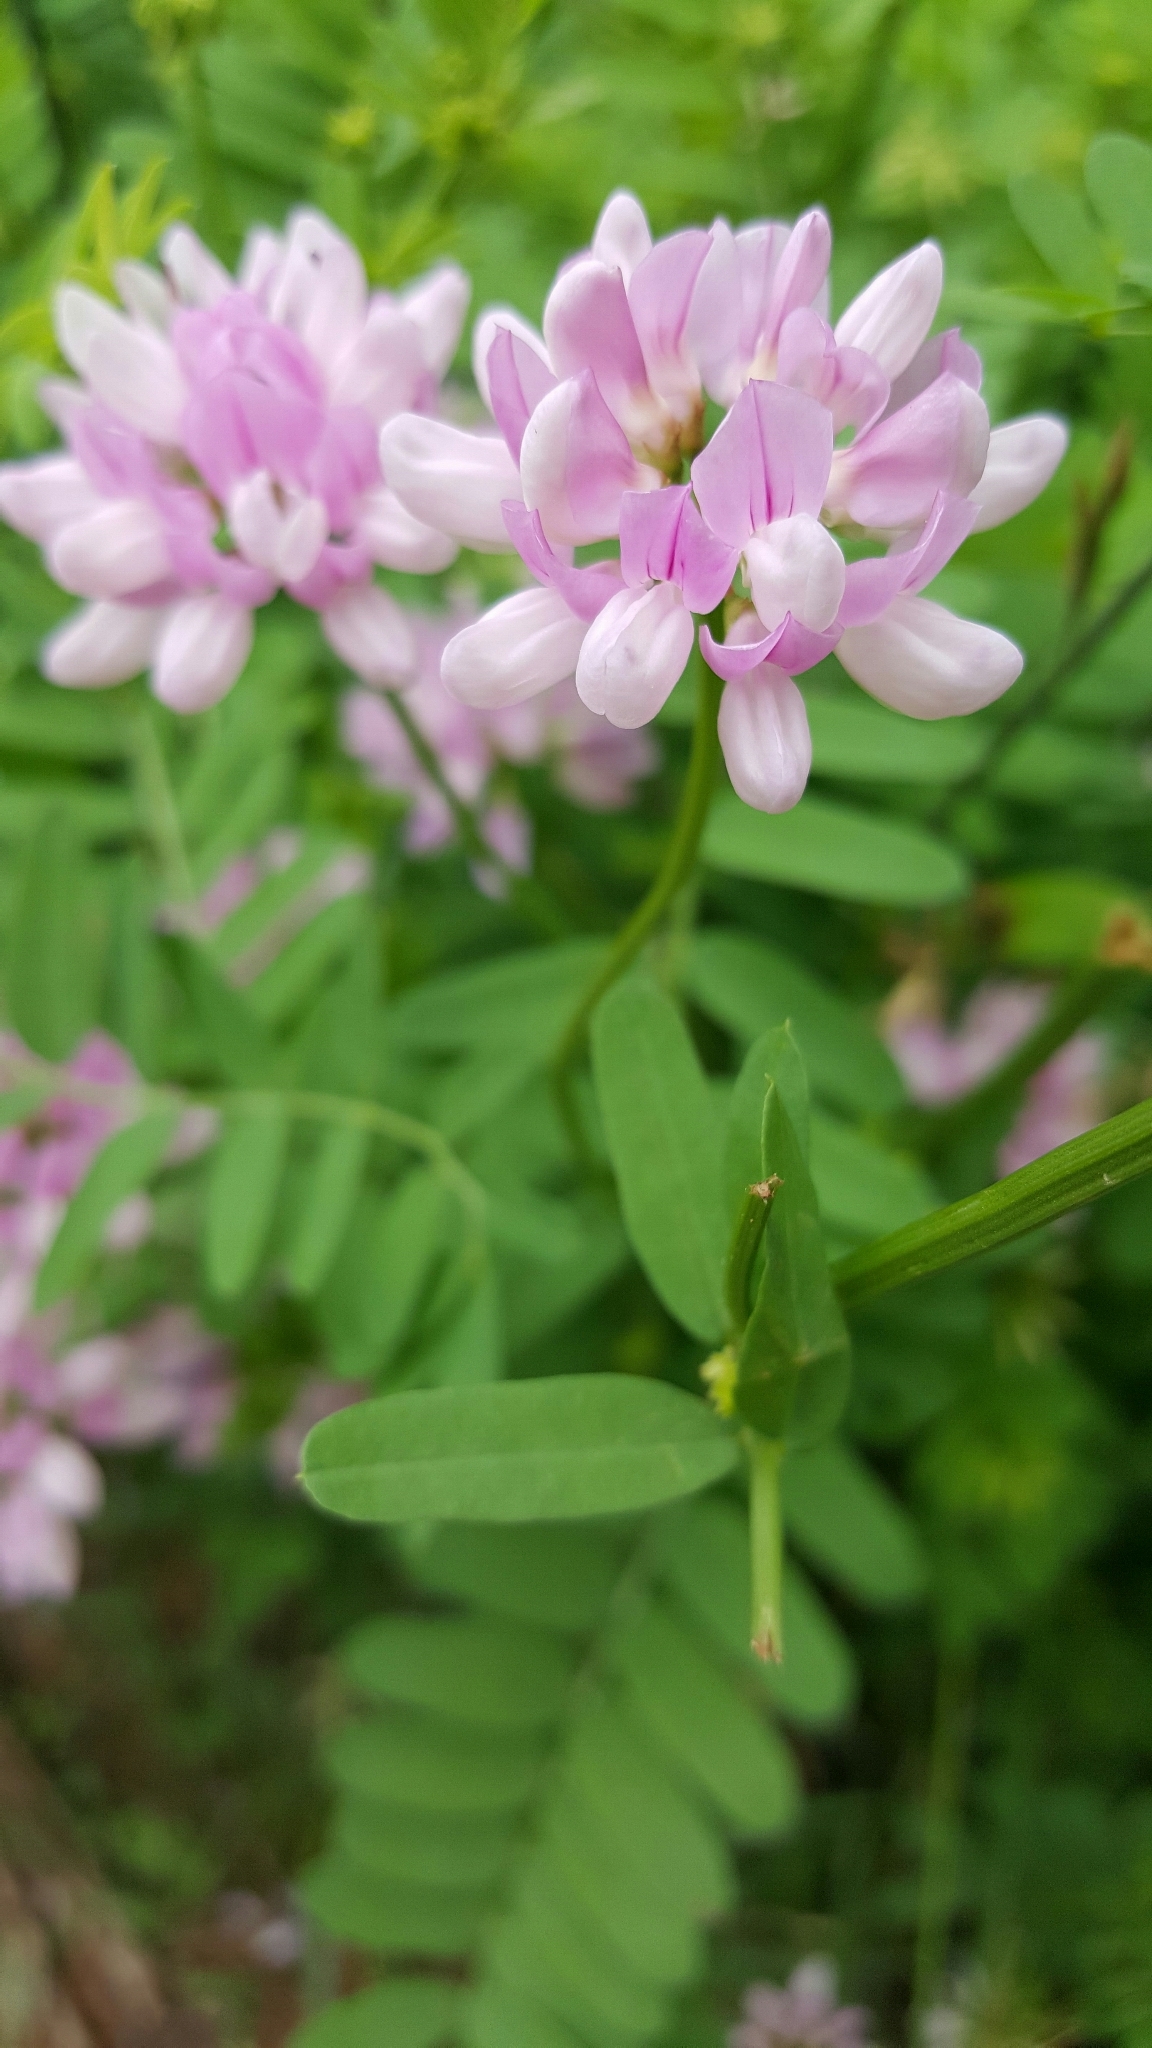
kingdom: Plantae
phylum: Tracheophyta
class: Magnoliopsida
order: Fabales
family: Fabaceae
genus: Coronilla
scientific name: Coronilla varia
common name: Crownvetch
